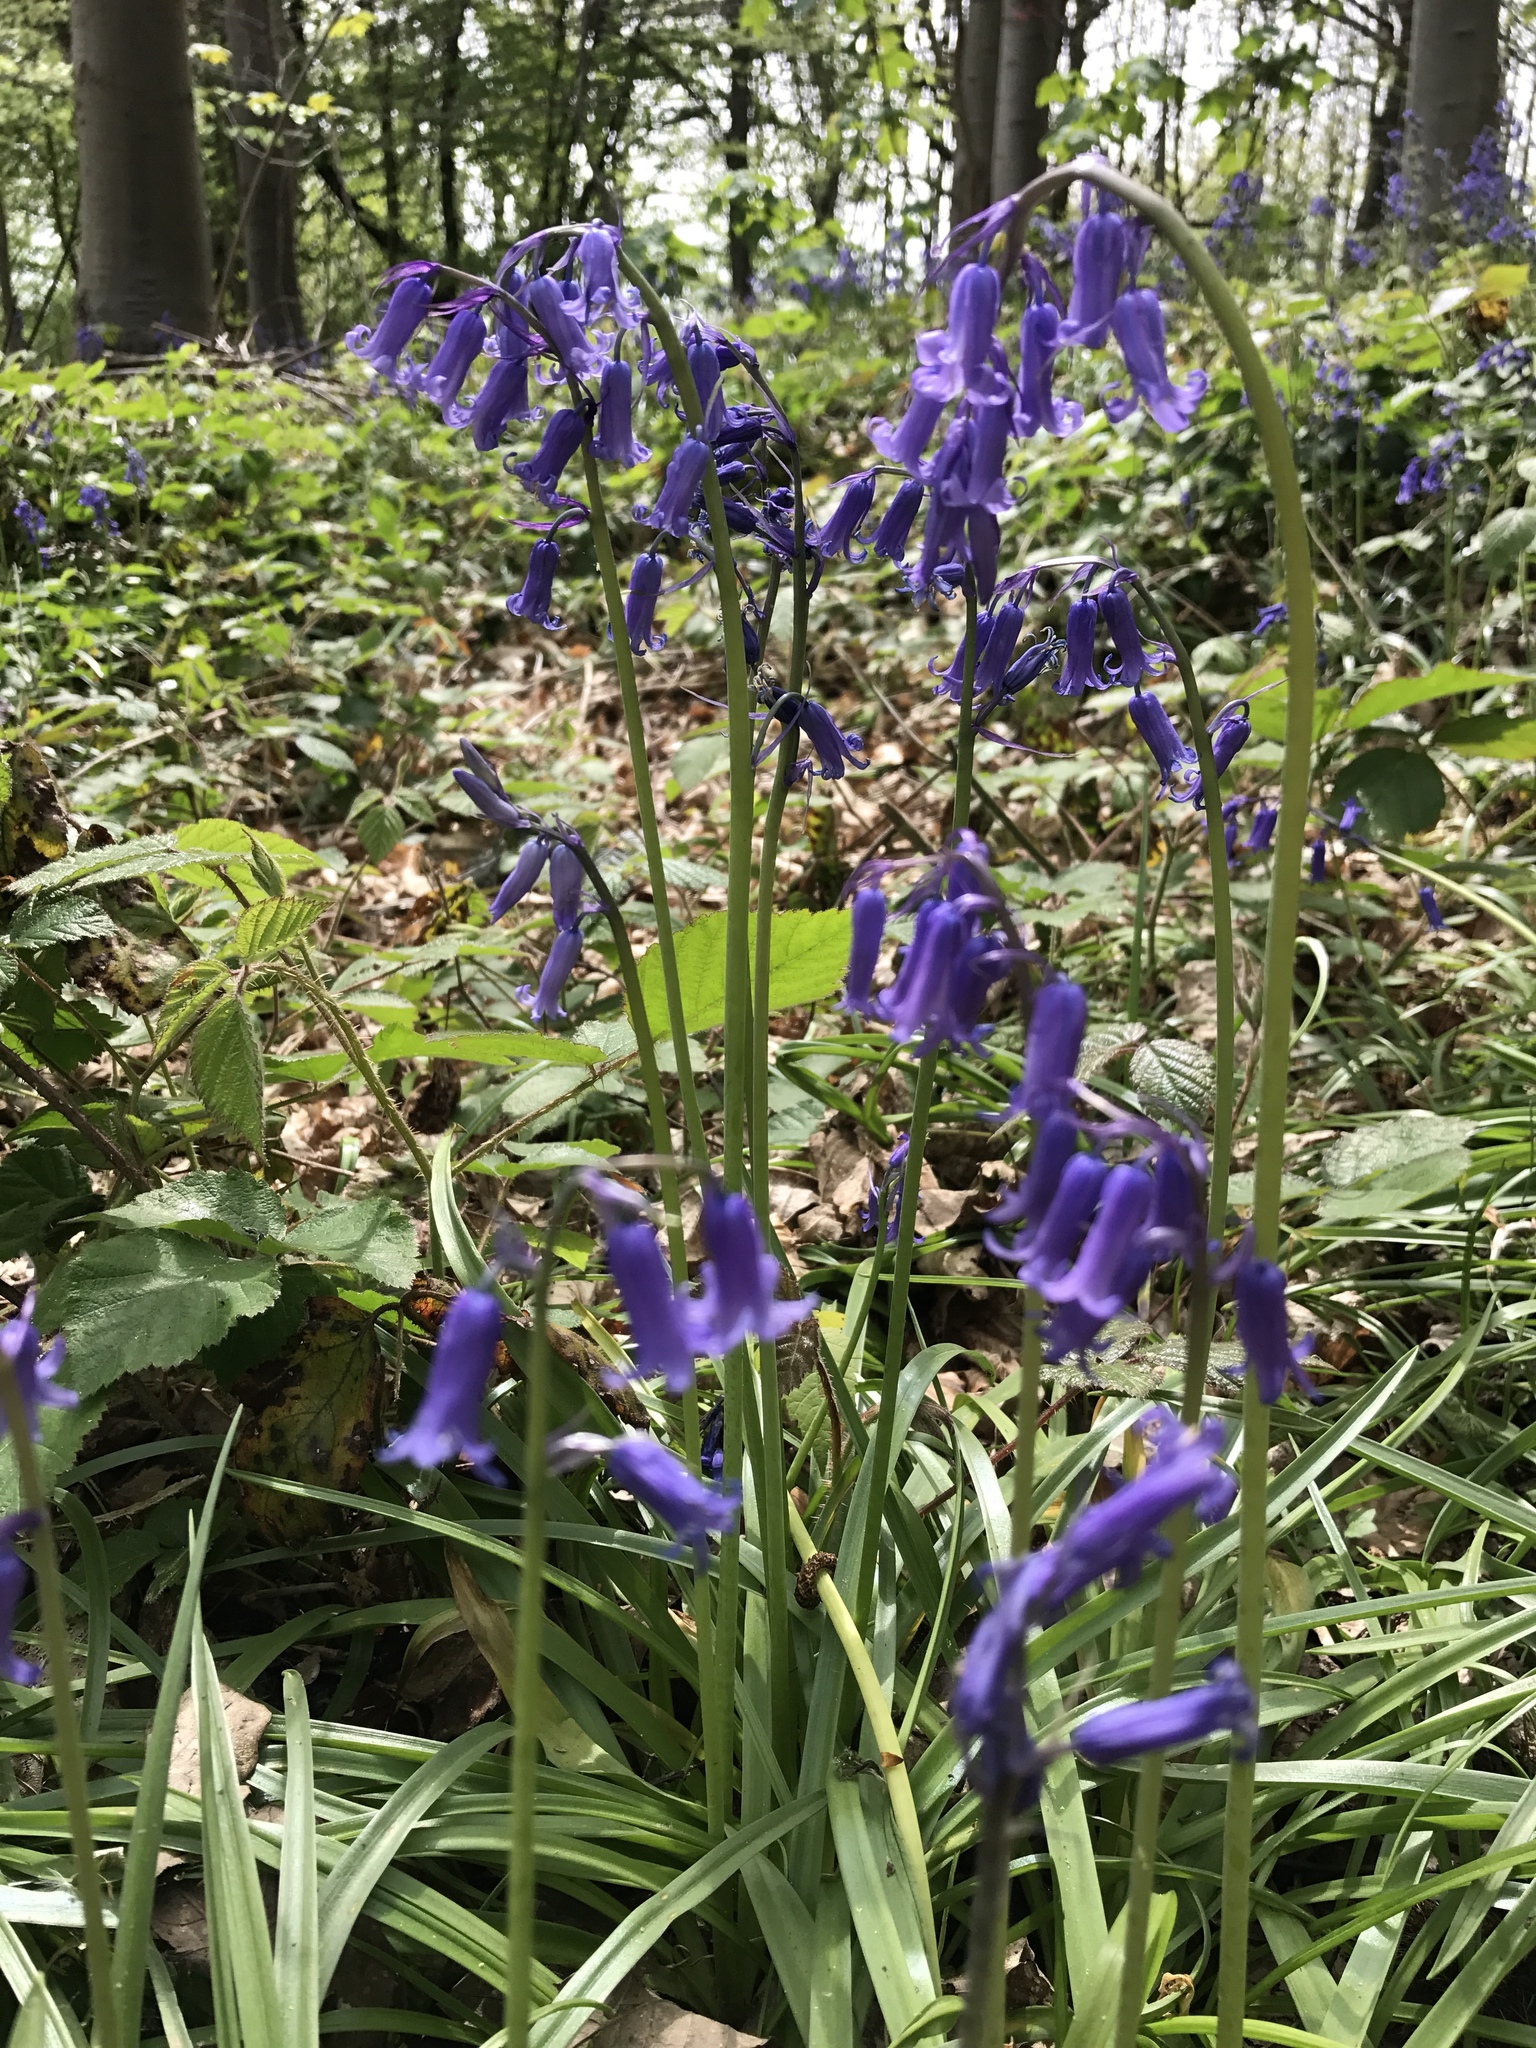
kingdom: Plantae
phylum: Tracheophyta
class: Liliopsida
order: Asparagales
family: Asparagaceae
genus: Hyacinthoides
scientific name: Hyacinthoides non-scripta
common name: Bluebell
